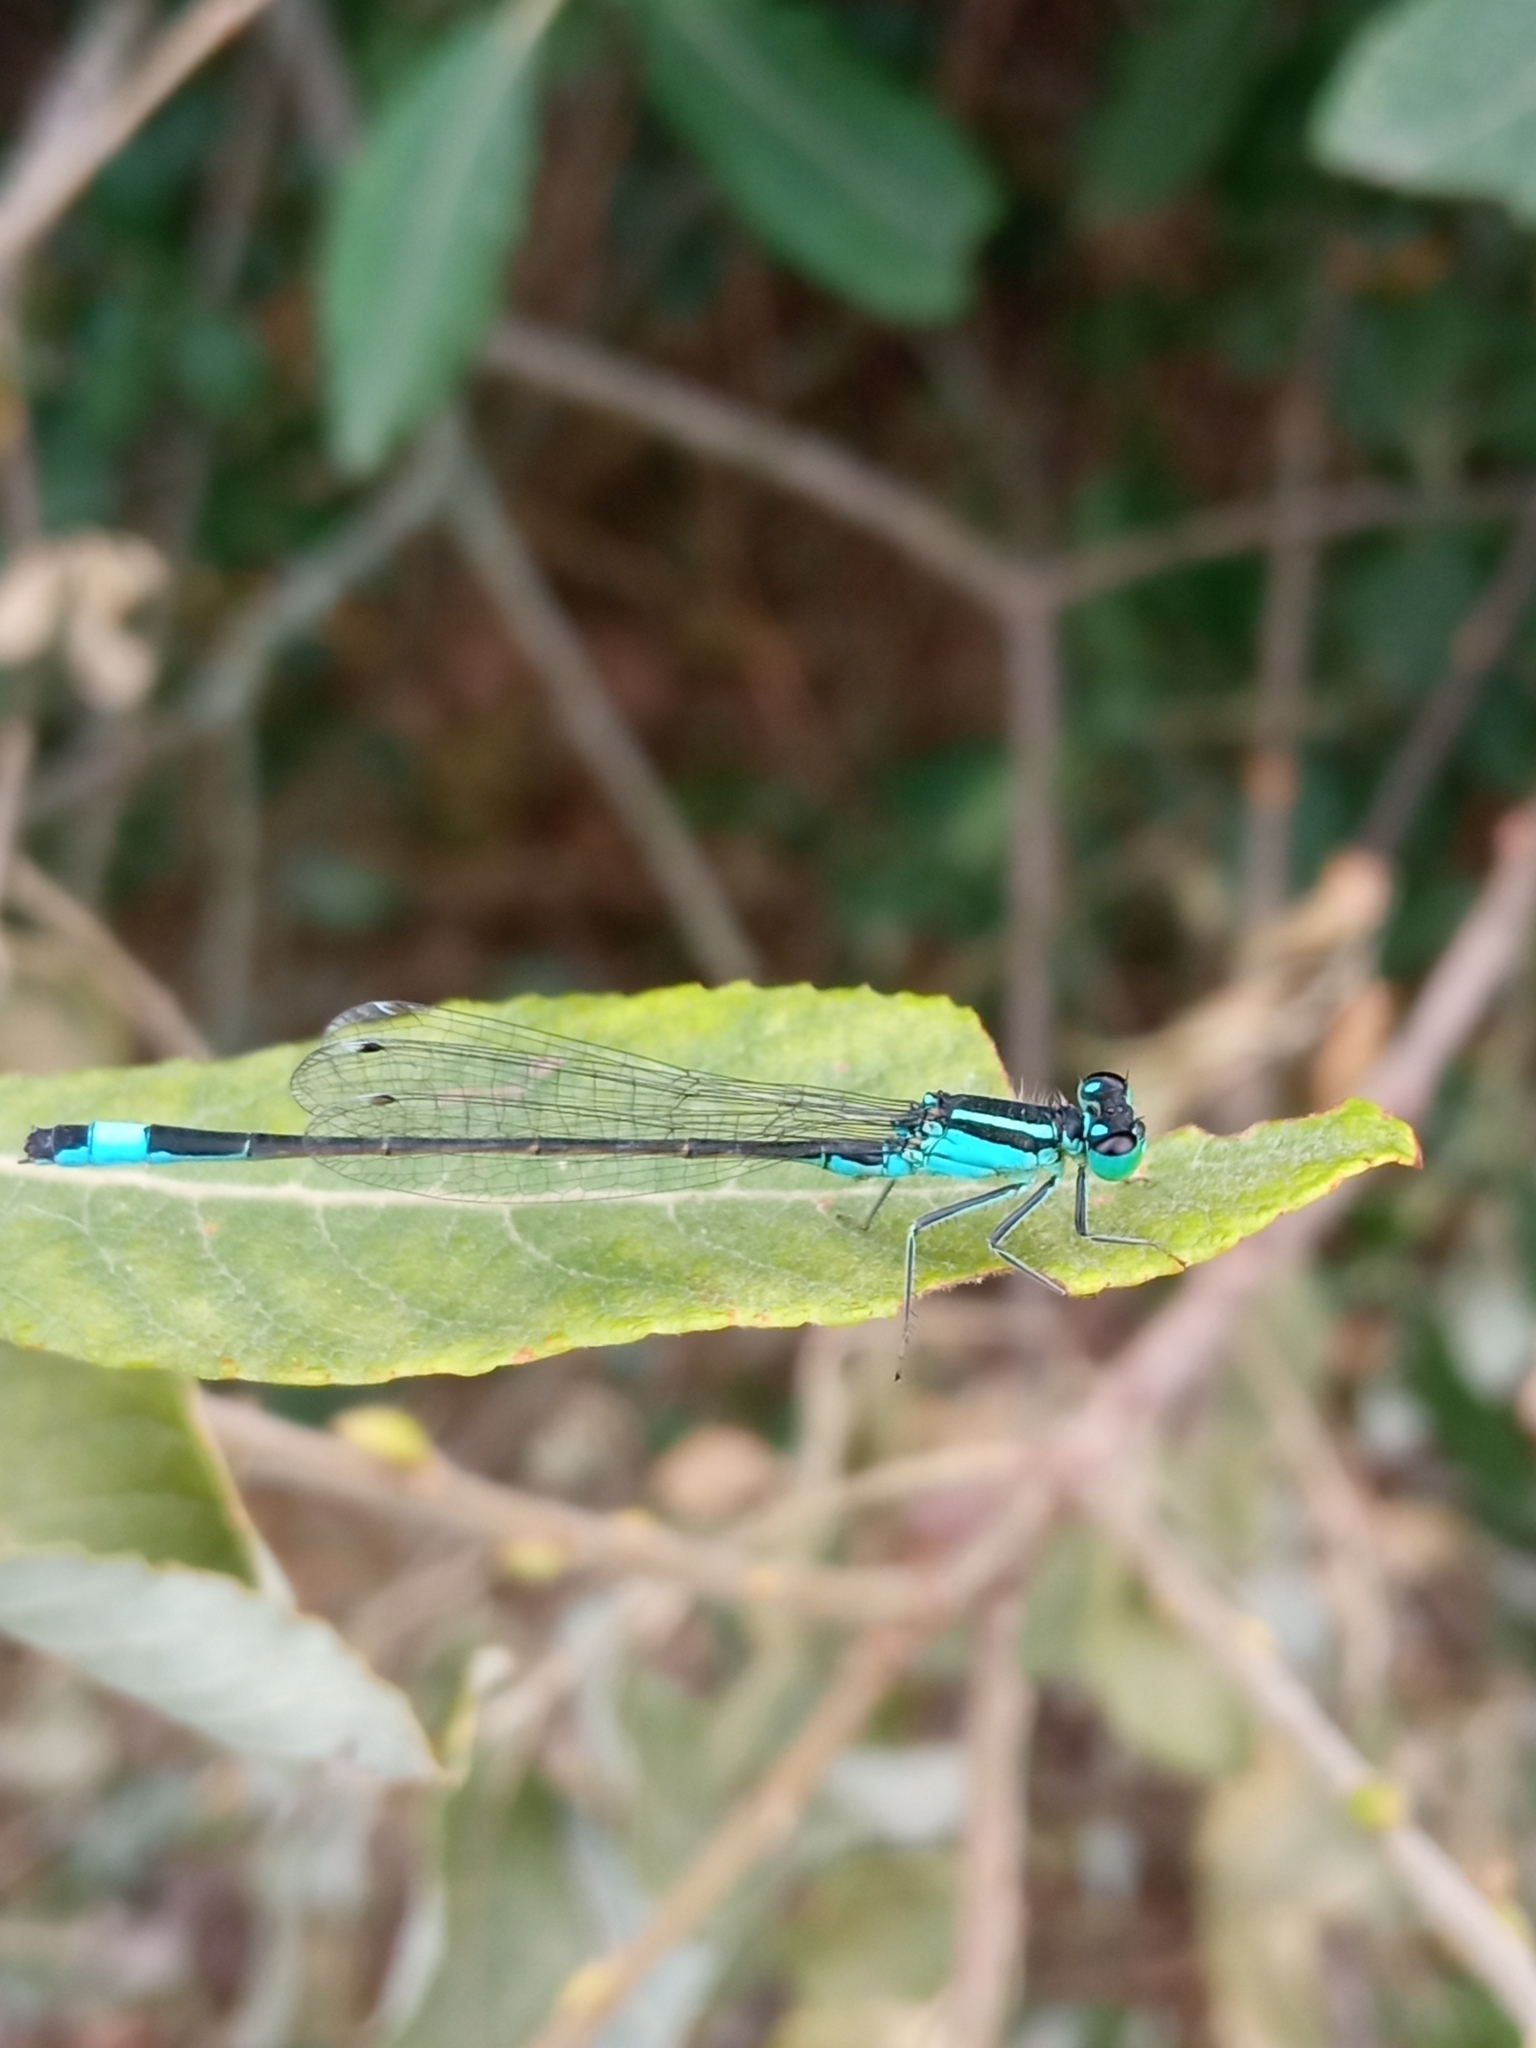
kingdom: Animalia
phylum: Arthropoda
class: Insecta
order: Odonata
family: Coenagrionidae
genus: Ischnura
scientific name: Ischnura elegans
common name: Blue-tailed damselfly
